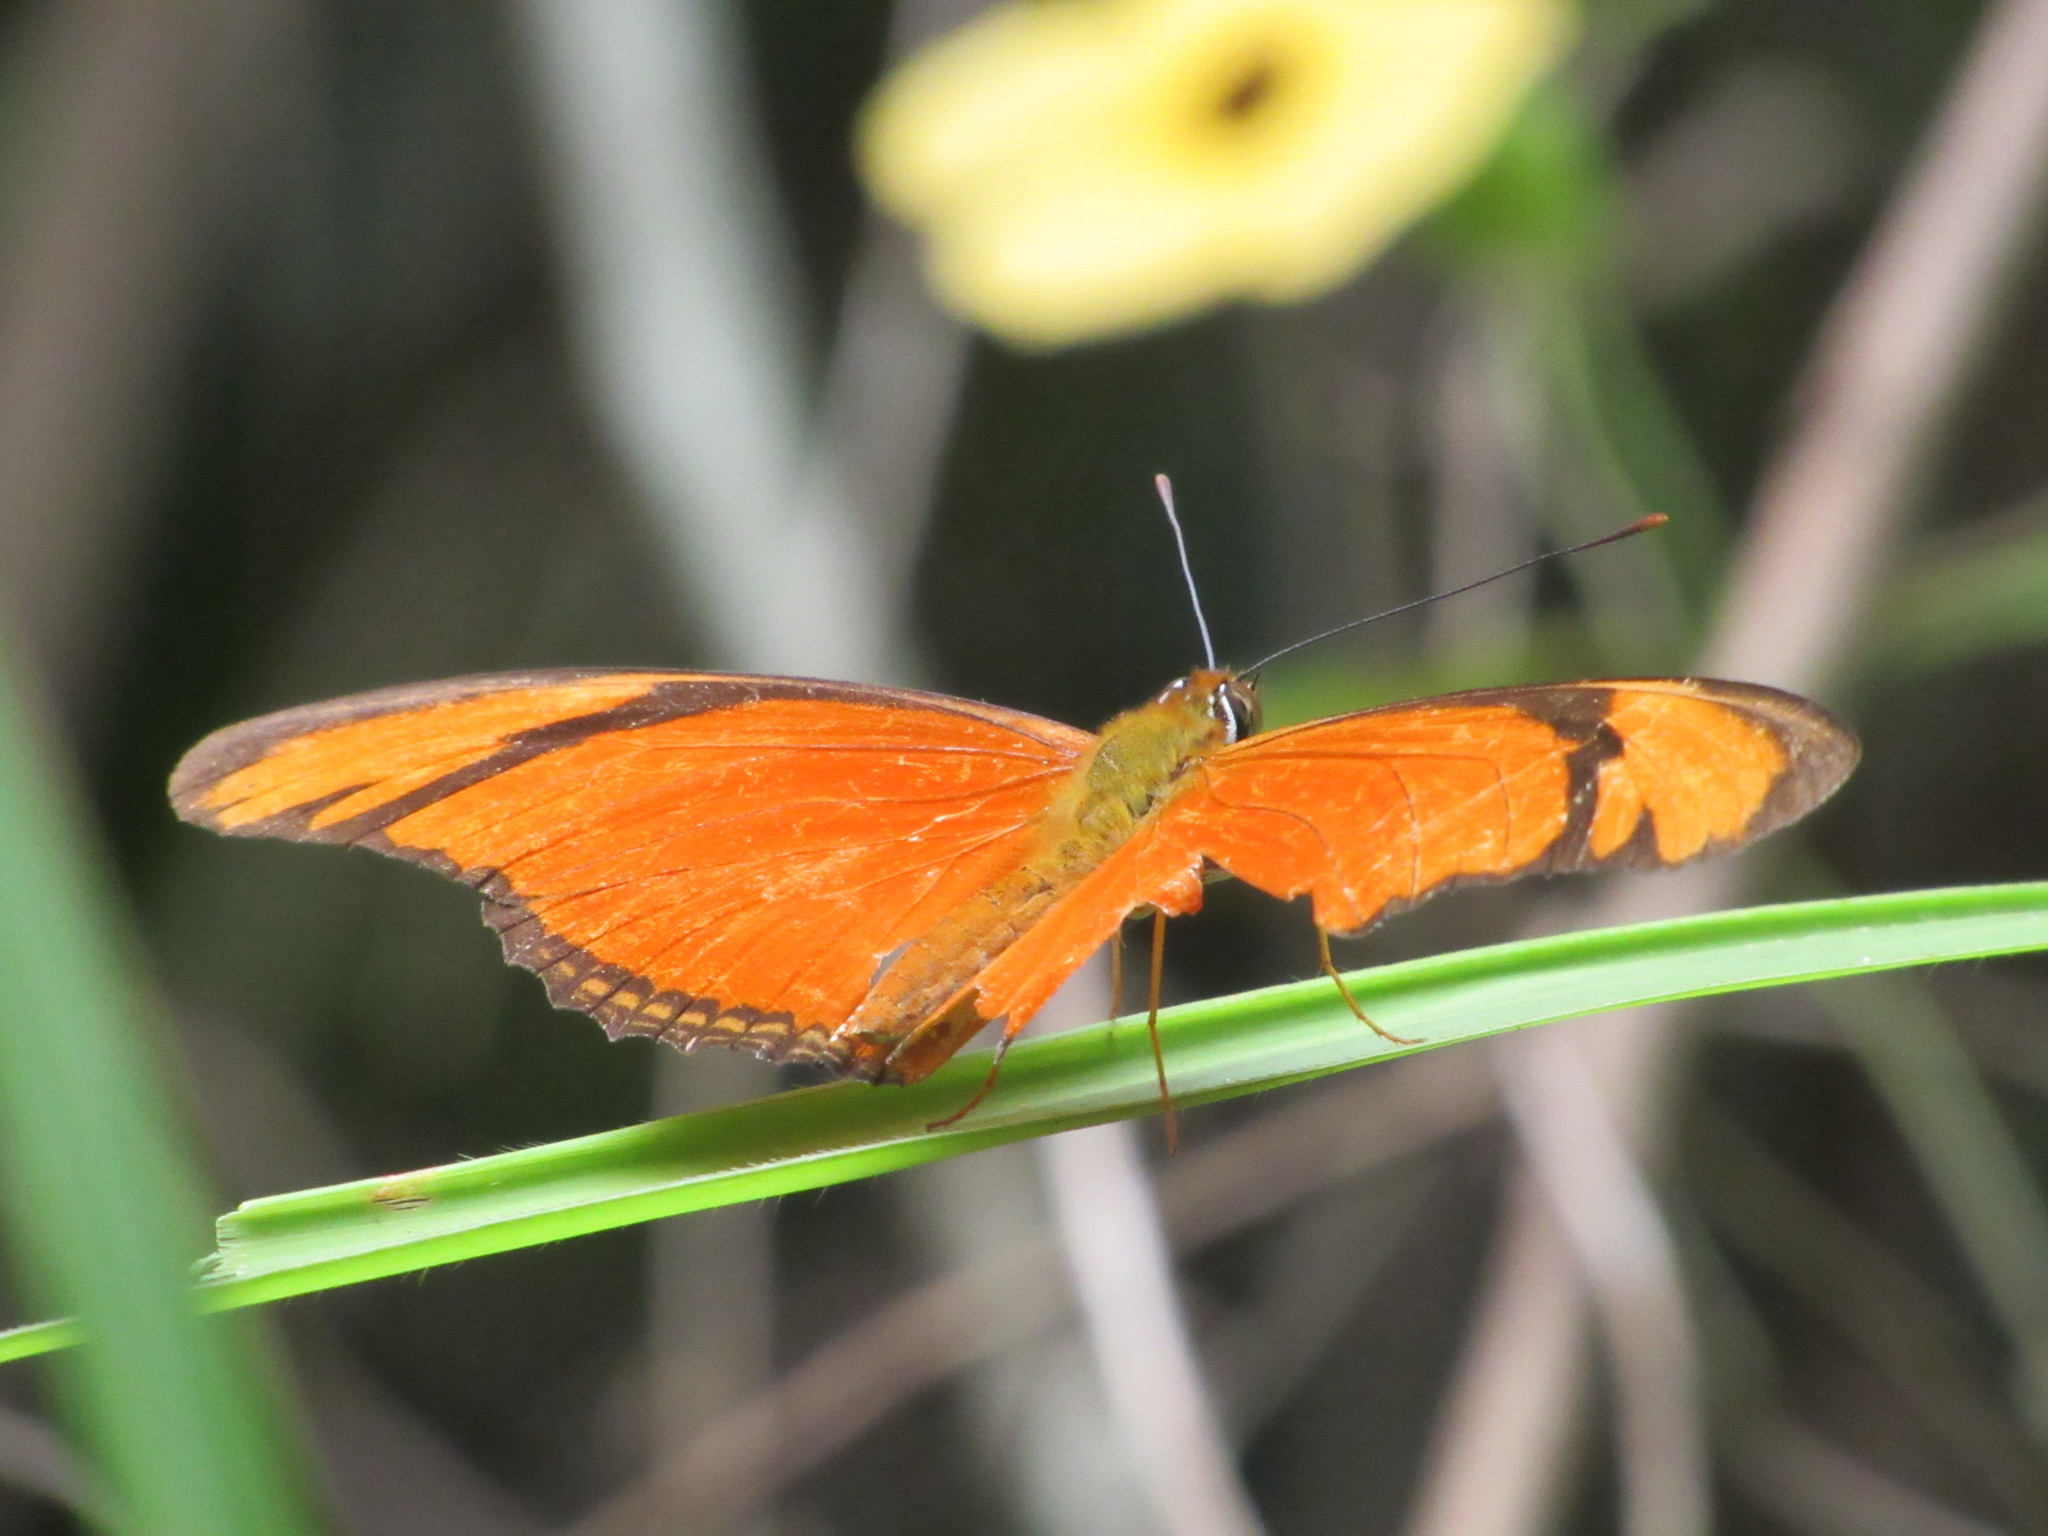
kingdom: Animalia
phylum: Arthropoda
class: Insecta
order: Lepidoptera
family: Nymphalidae
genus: Dryas
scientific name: Dryas iulia
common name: Flambeau
